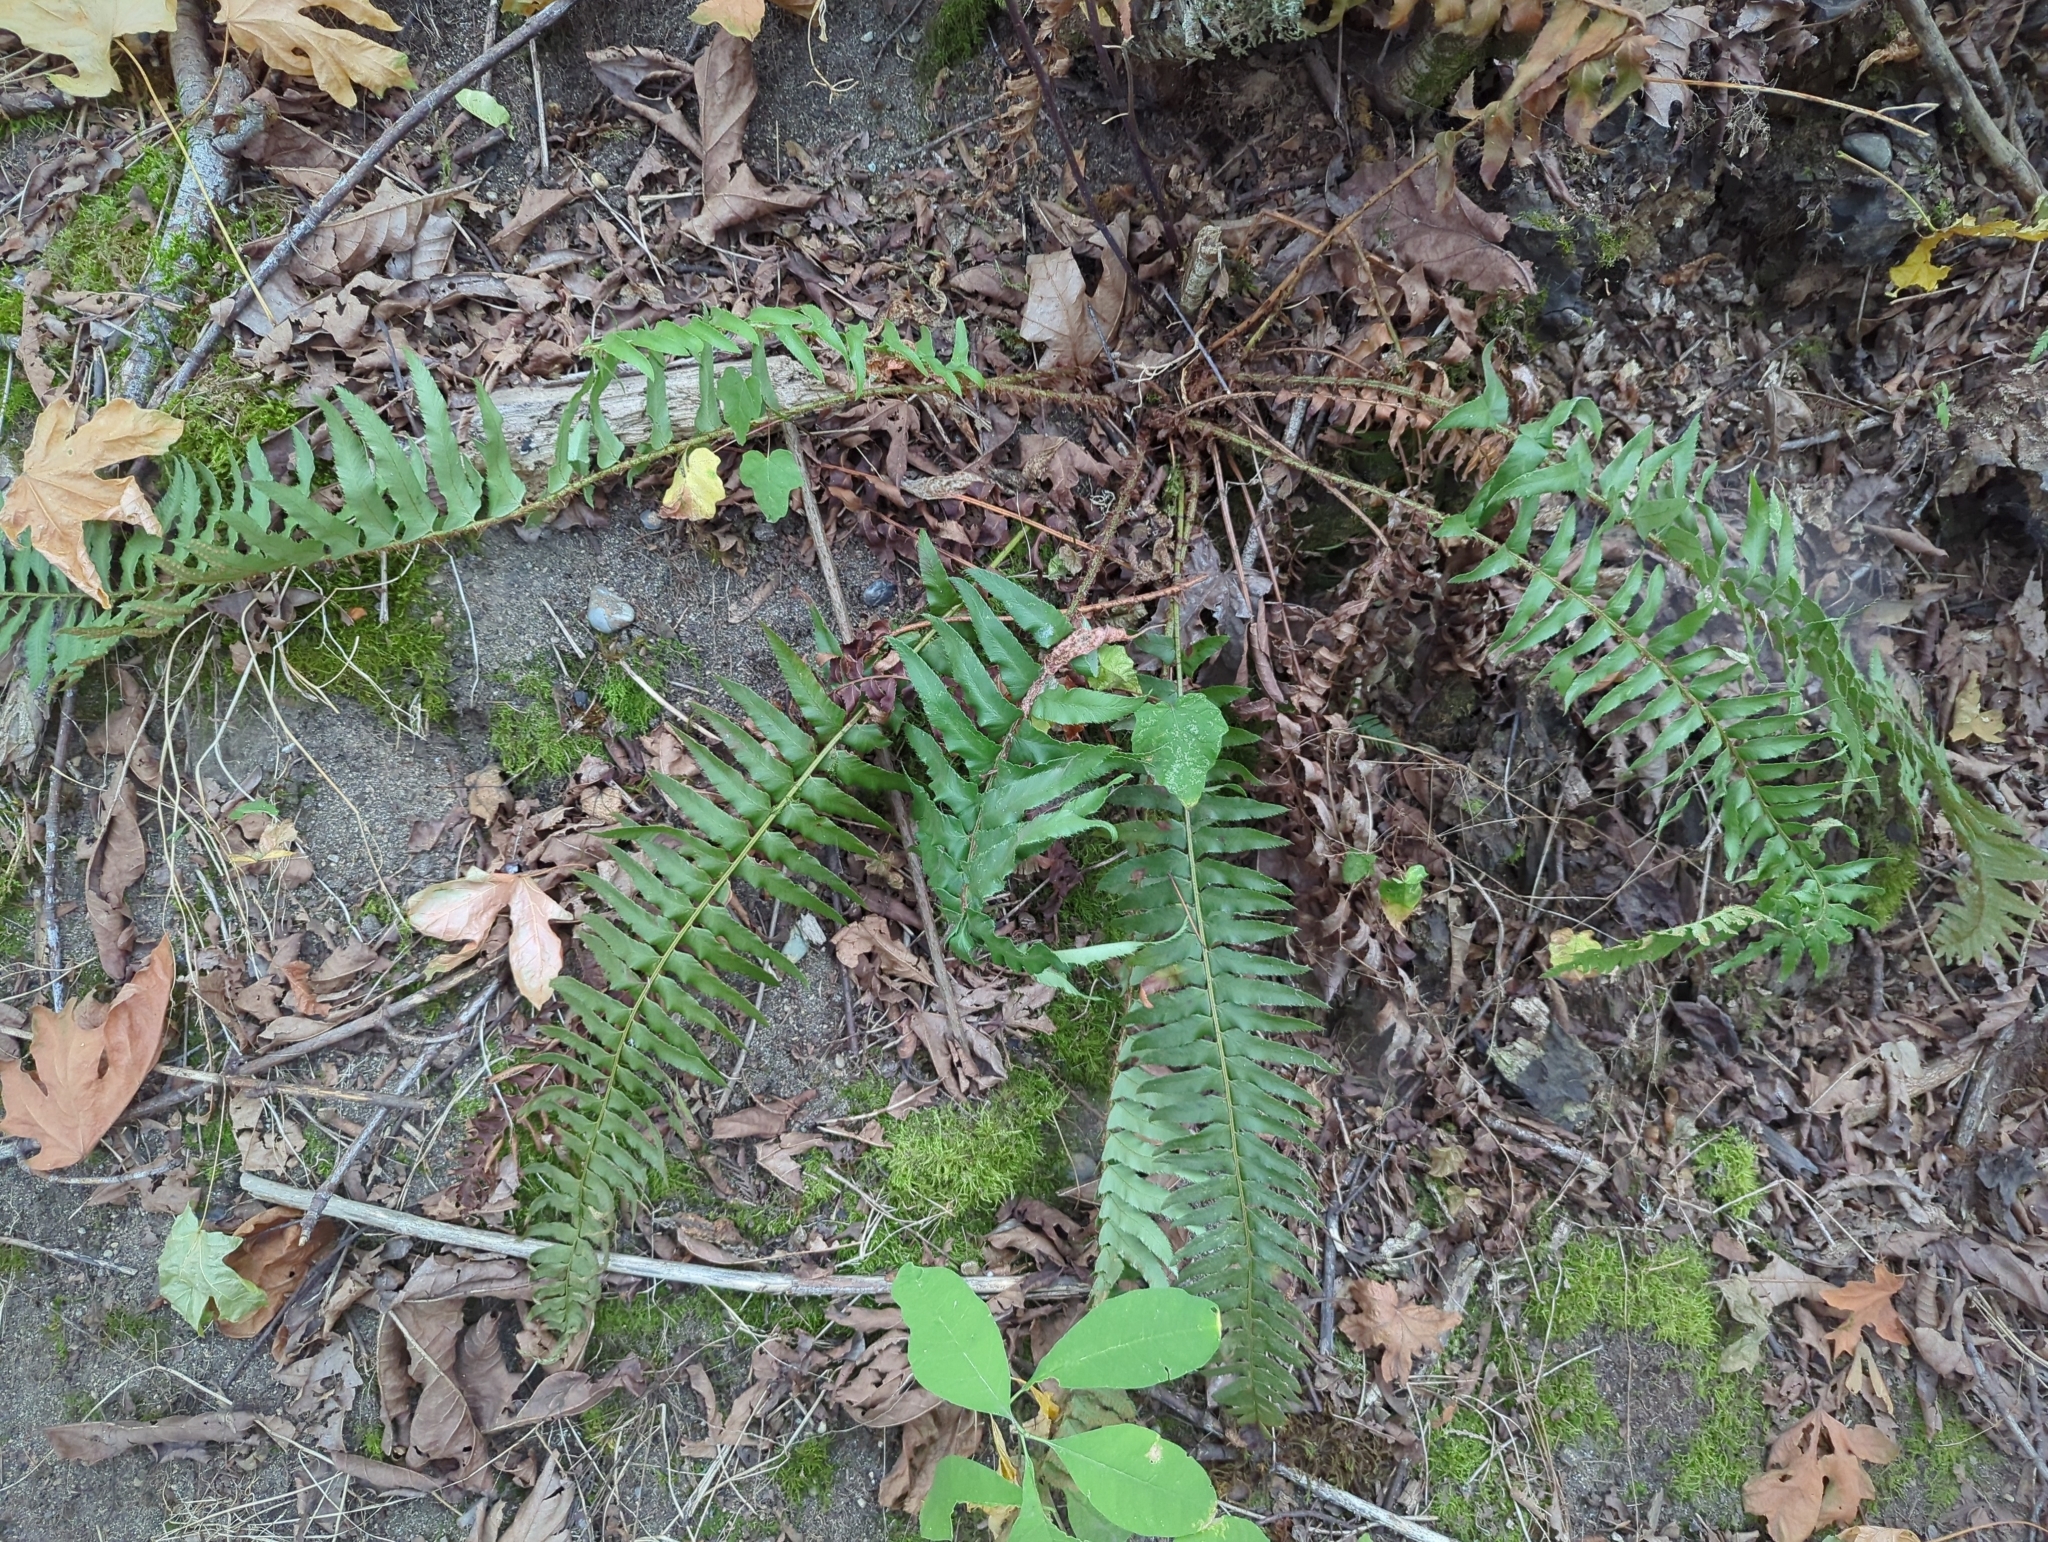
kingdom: Plantae
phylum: Tracheophyta
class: Polypodiopsida
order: Polypodiales
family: Dryopteridaceae
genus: Polystichum
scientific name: Polystichum munitum
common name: Western sword-fern
